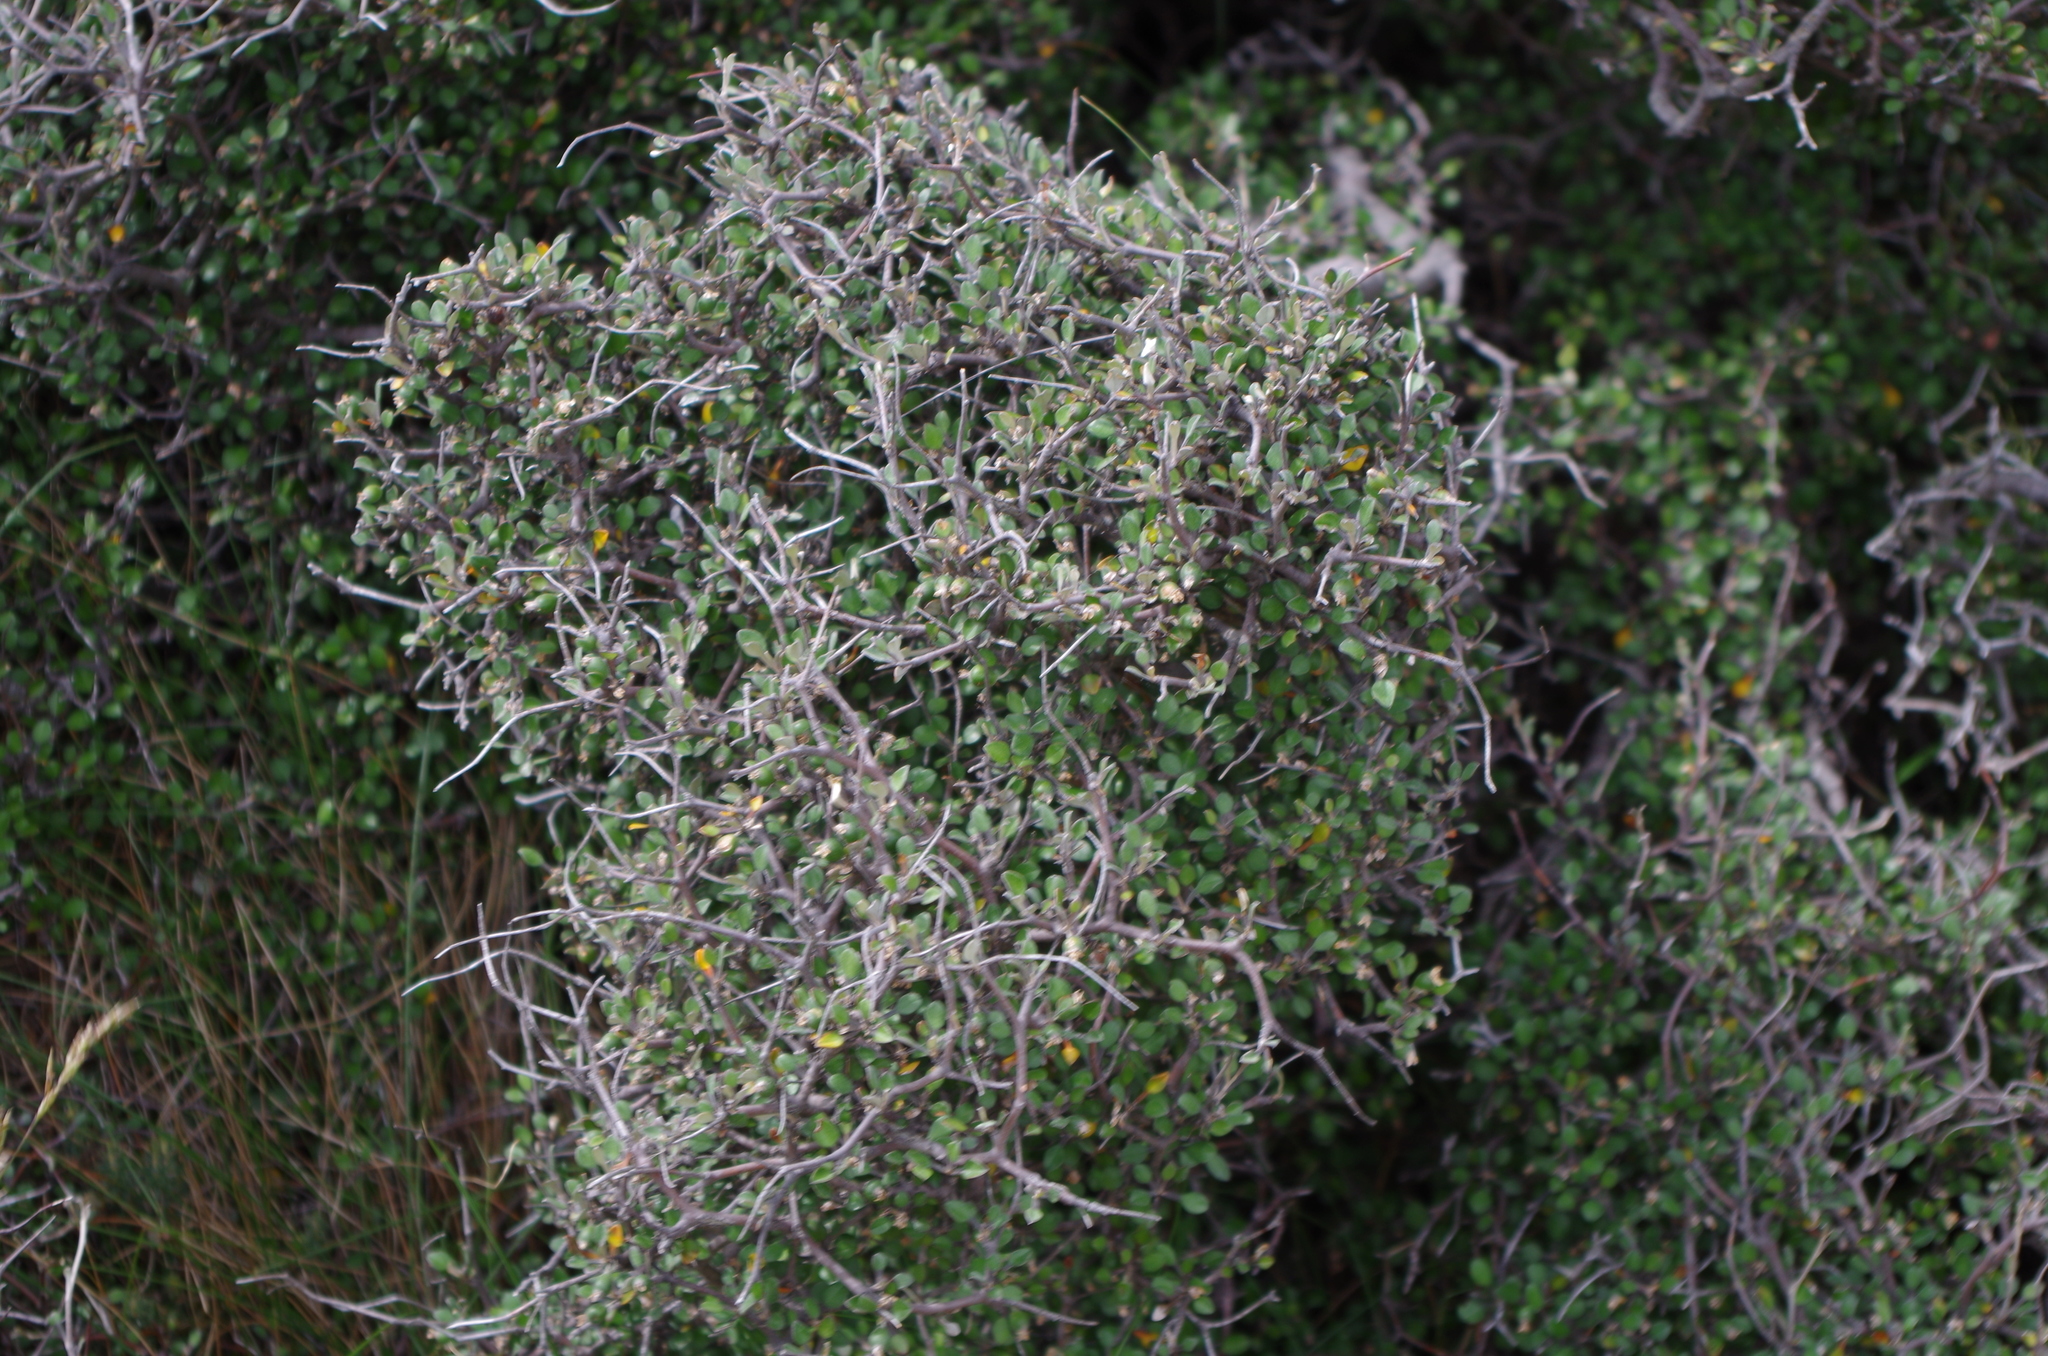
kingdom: Plantae
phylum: Tracheophyta
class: Magnoliopsida
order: Asterales
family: Argophyllaceae
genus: Corokia
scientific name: Corokia cotoneaster
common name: Wire nettingbush
